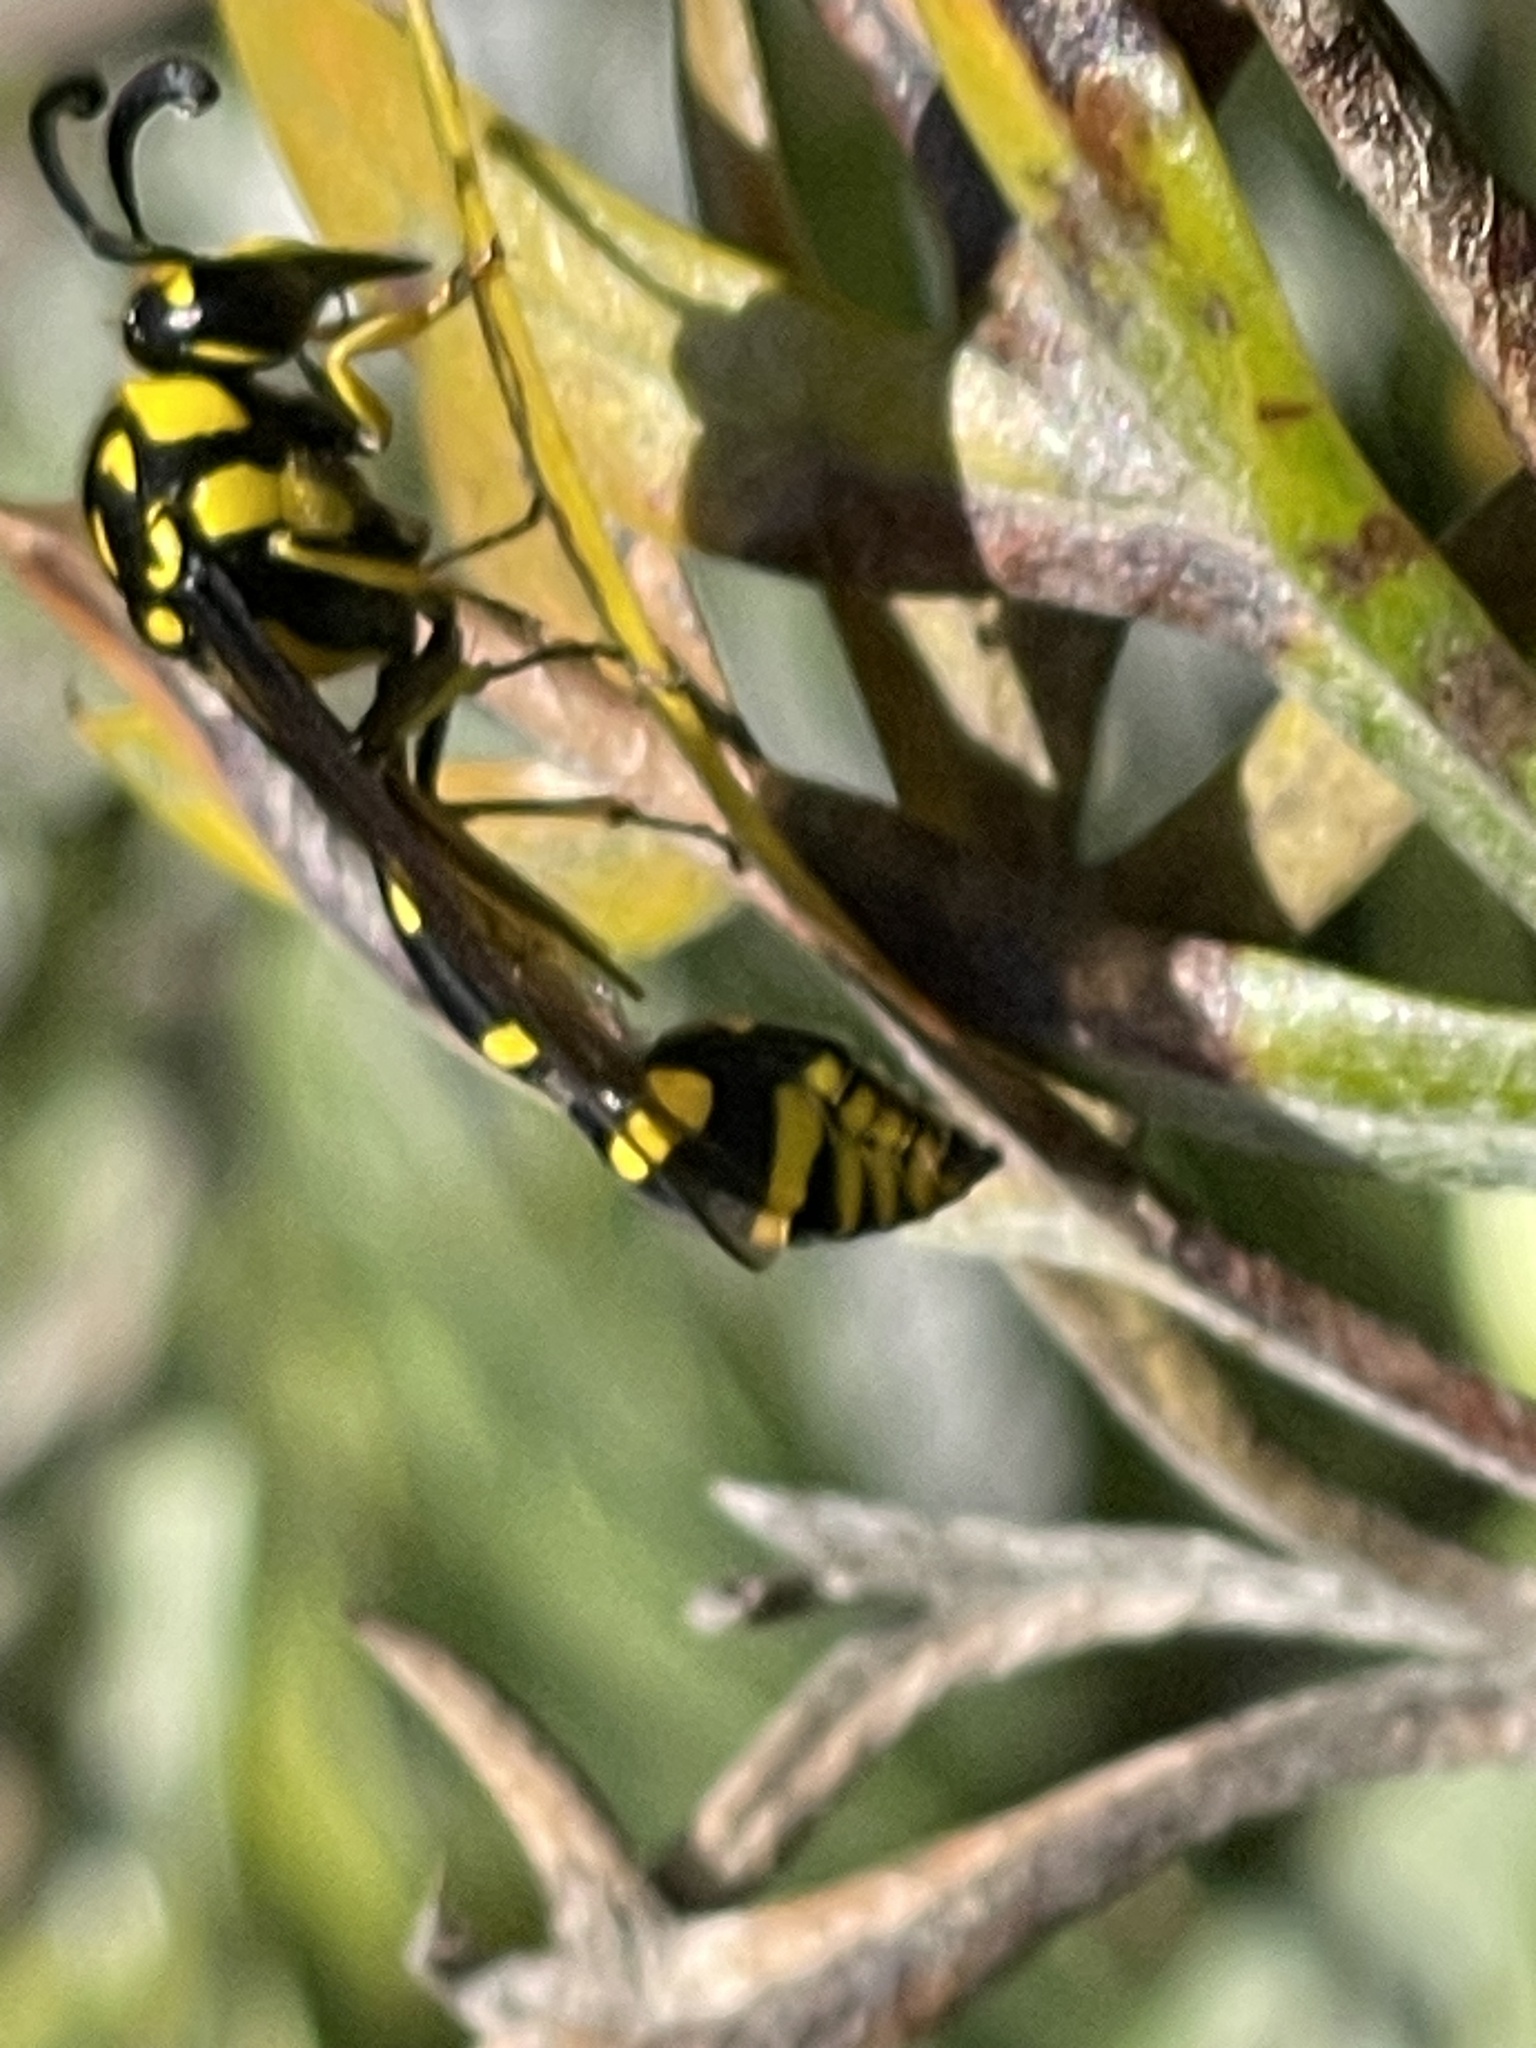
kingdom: Animalia
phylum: Arthropoda
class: Insecta
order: Hymenoptera
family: Eumenidae
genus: Phimenes
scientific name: Phimenes arcuatus
